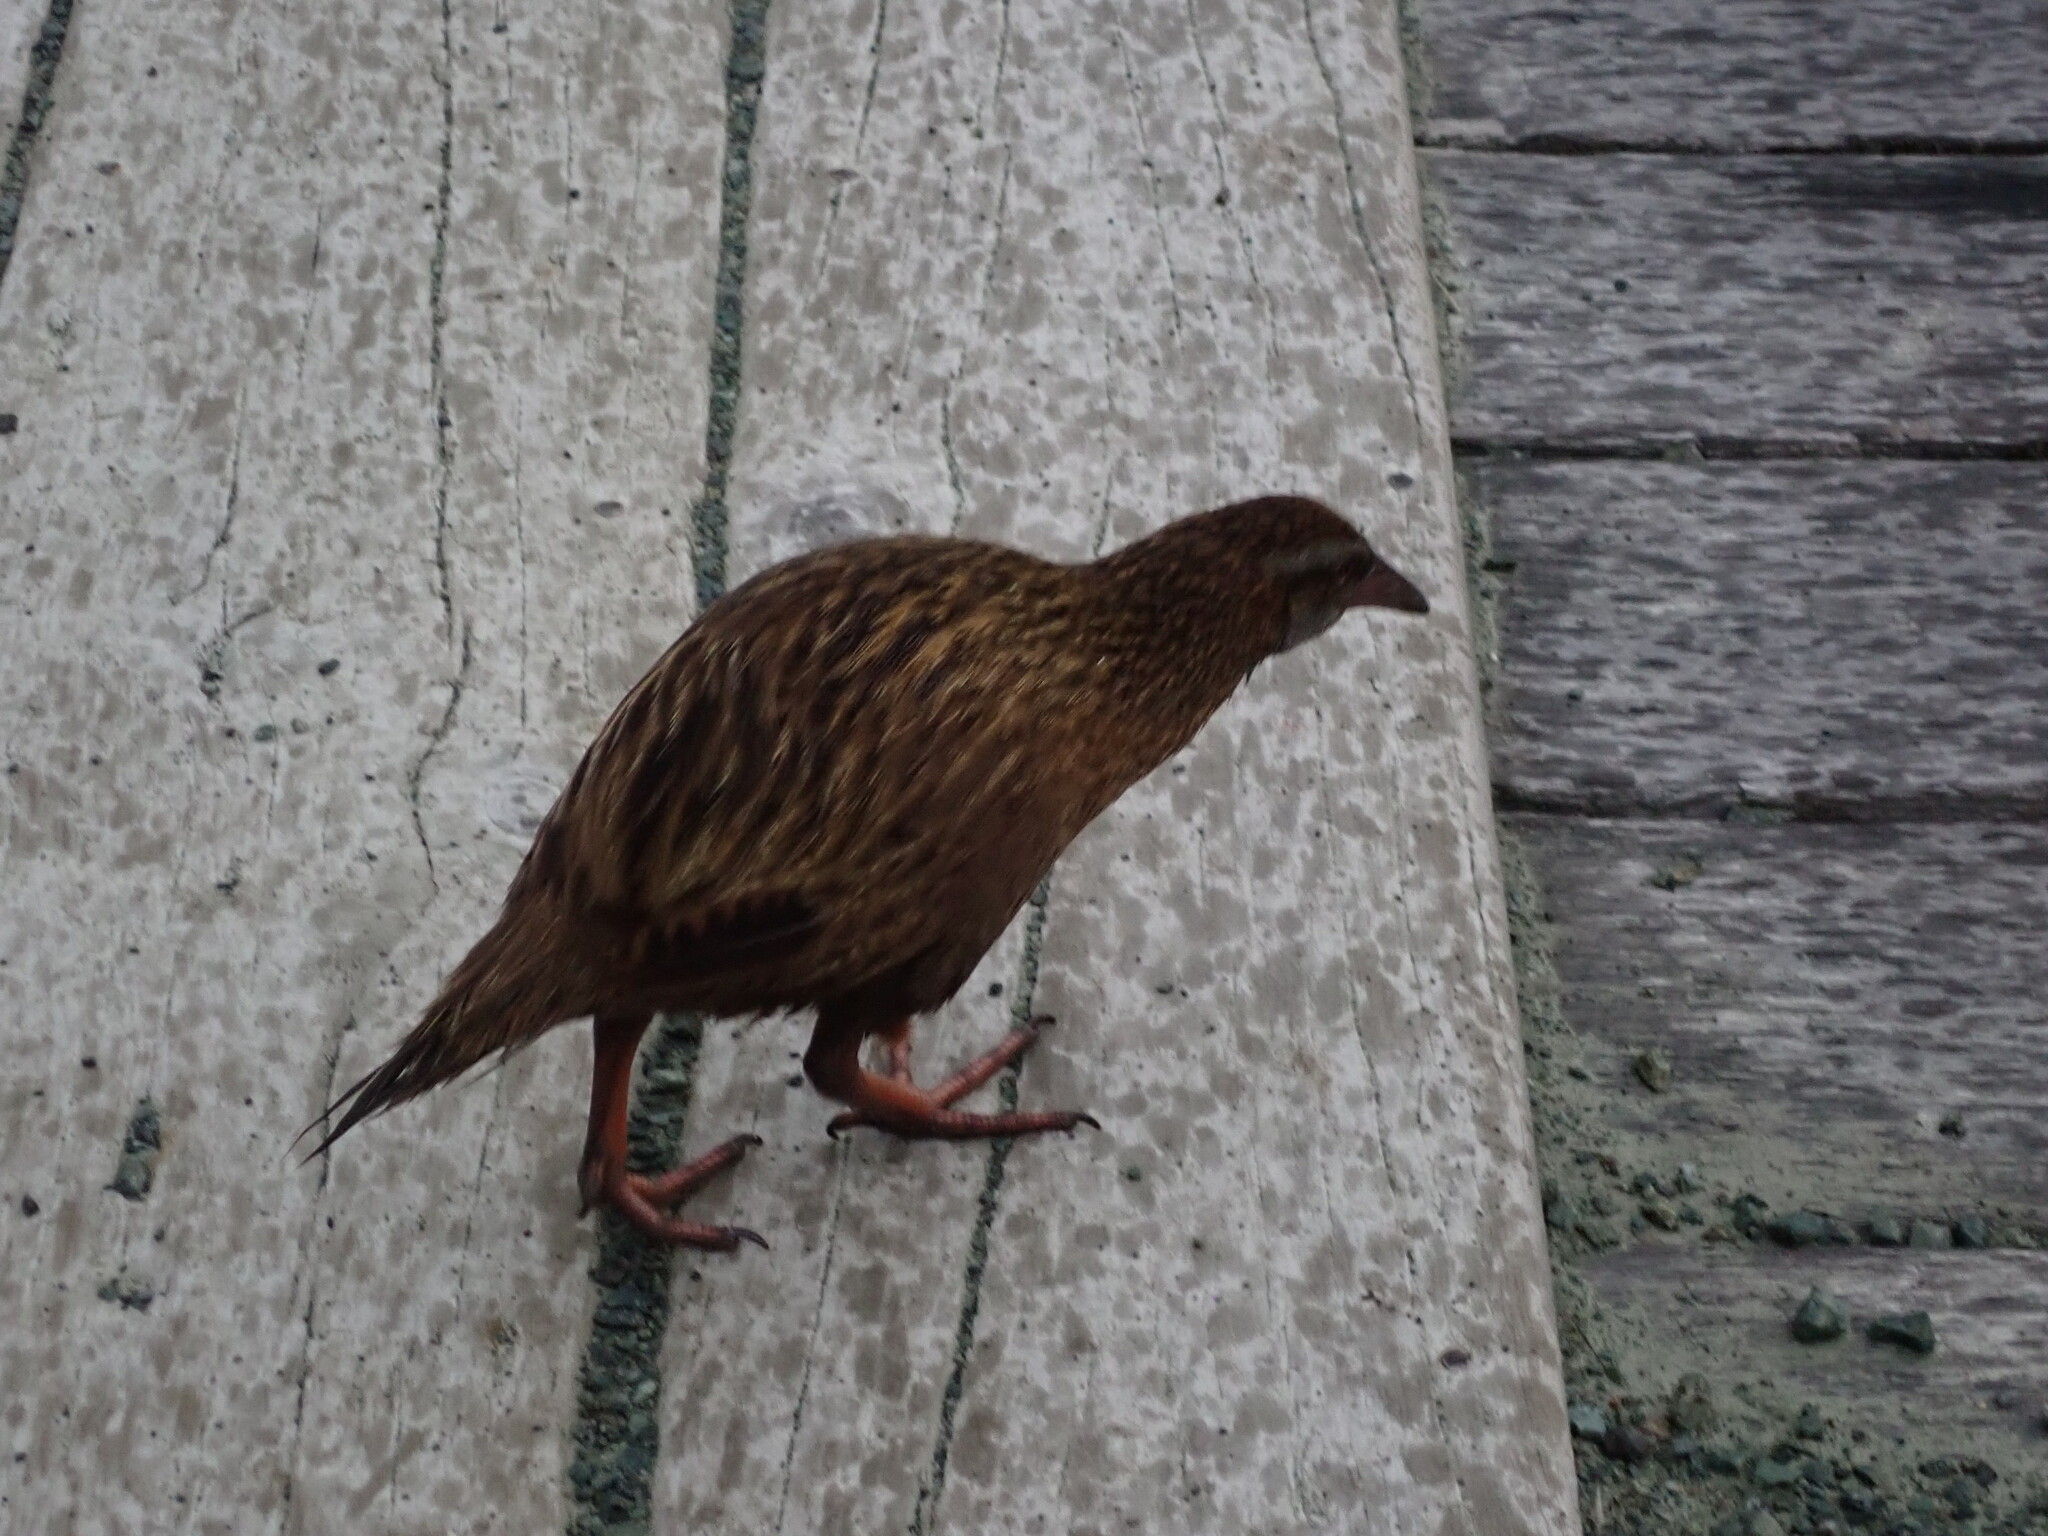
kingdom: Animalia
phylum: Chordata
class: Aves
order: Gruiformes
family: Rallidae
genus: Gallirallus
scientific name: Gallirallus australis
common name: Weka
